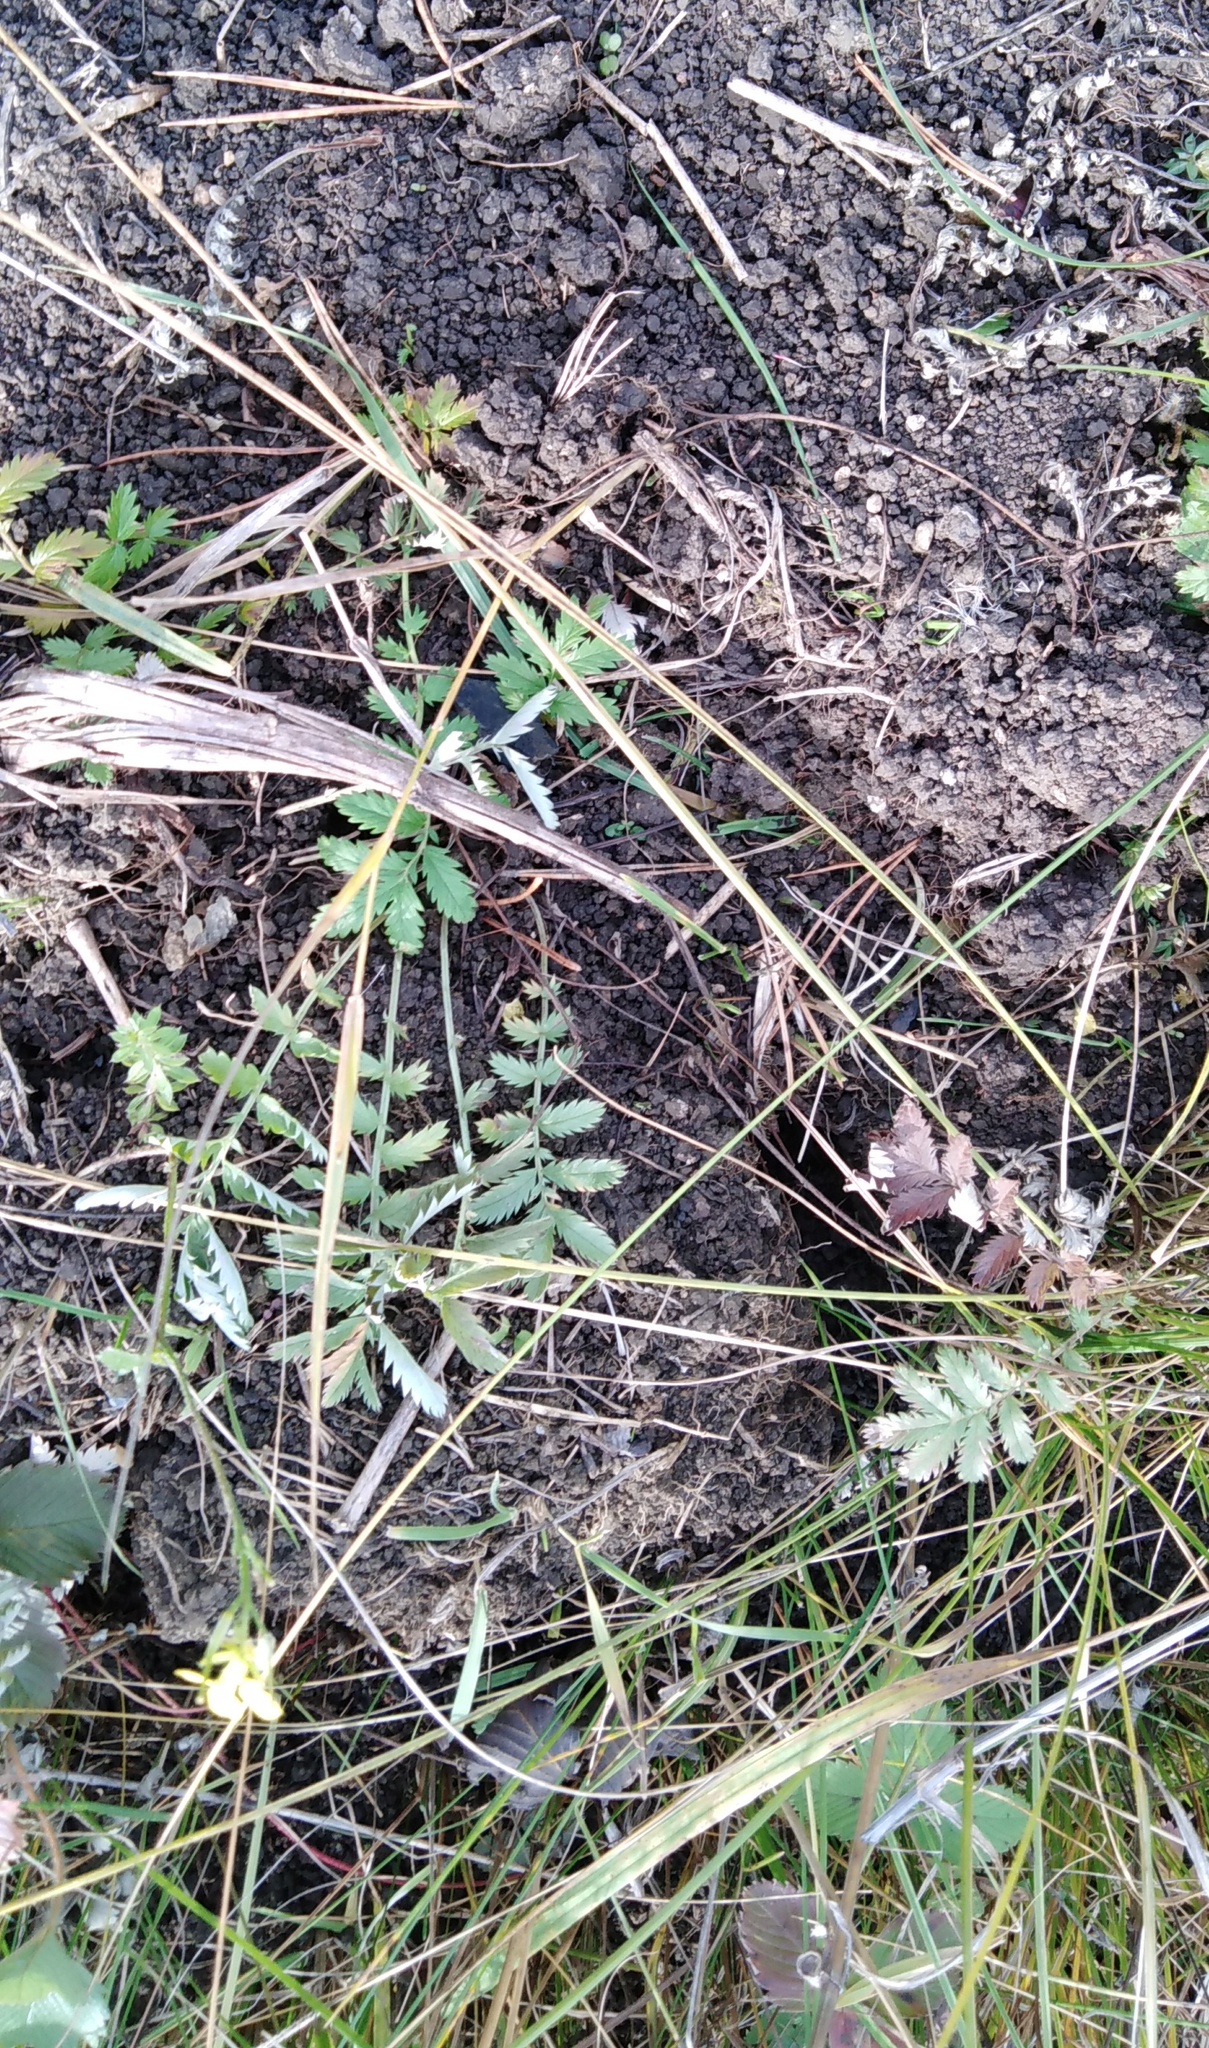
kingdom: Plantae
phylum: Tracheophyta
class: Magnoliopsida
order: Rosales
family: Rosaceae
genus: Argentina
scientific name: Argentina anserina
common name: Common silverweed
